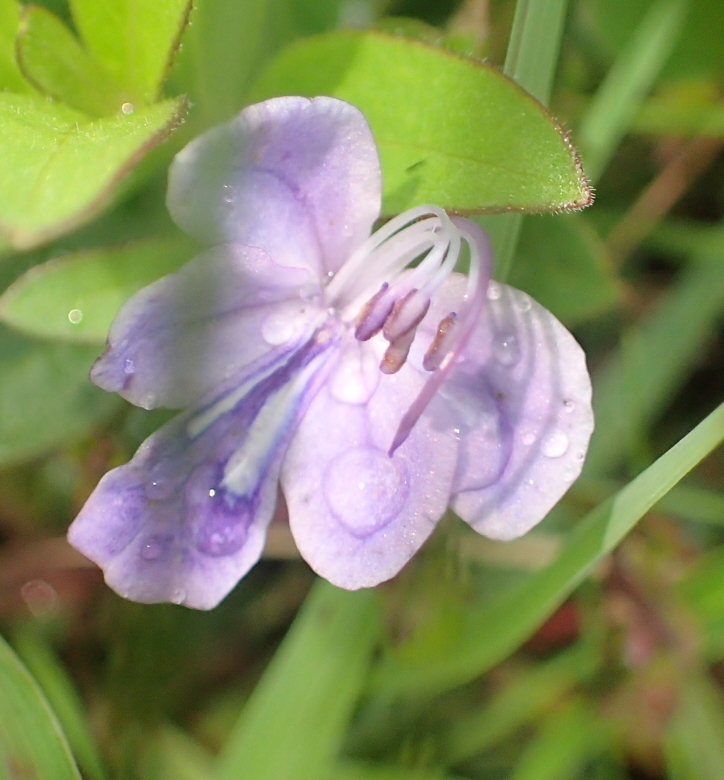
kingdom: Plantae
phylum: Tracheophyta
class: Magnoliopsida
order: Lamiales
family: Lamiaceae
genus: Rotheca
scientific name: Rotheca hirsuta
